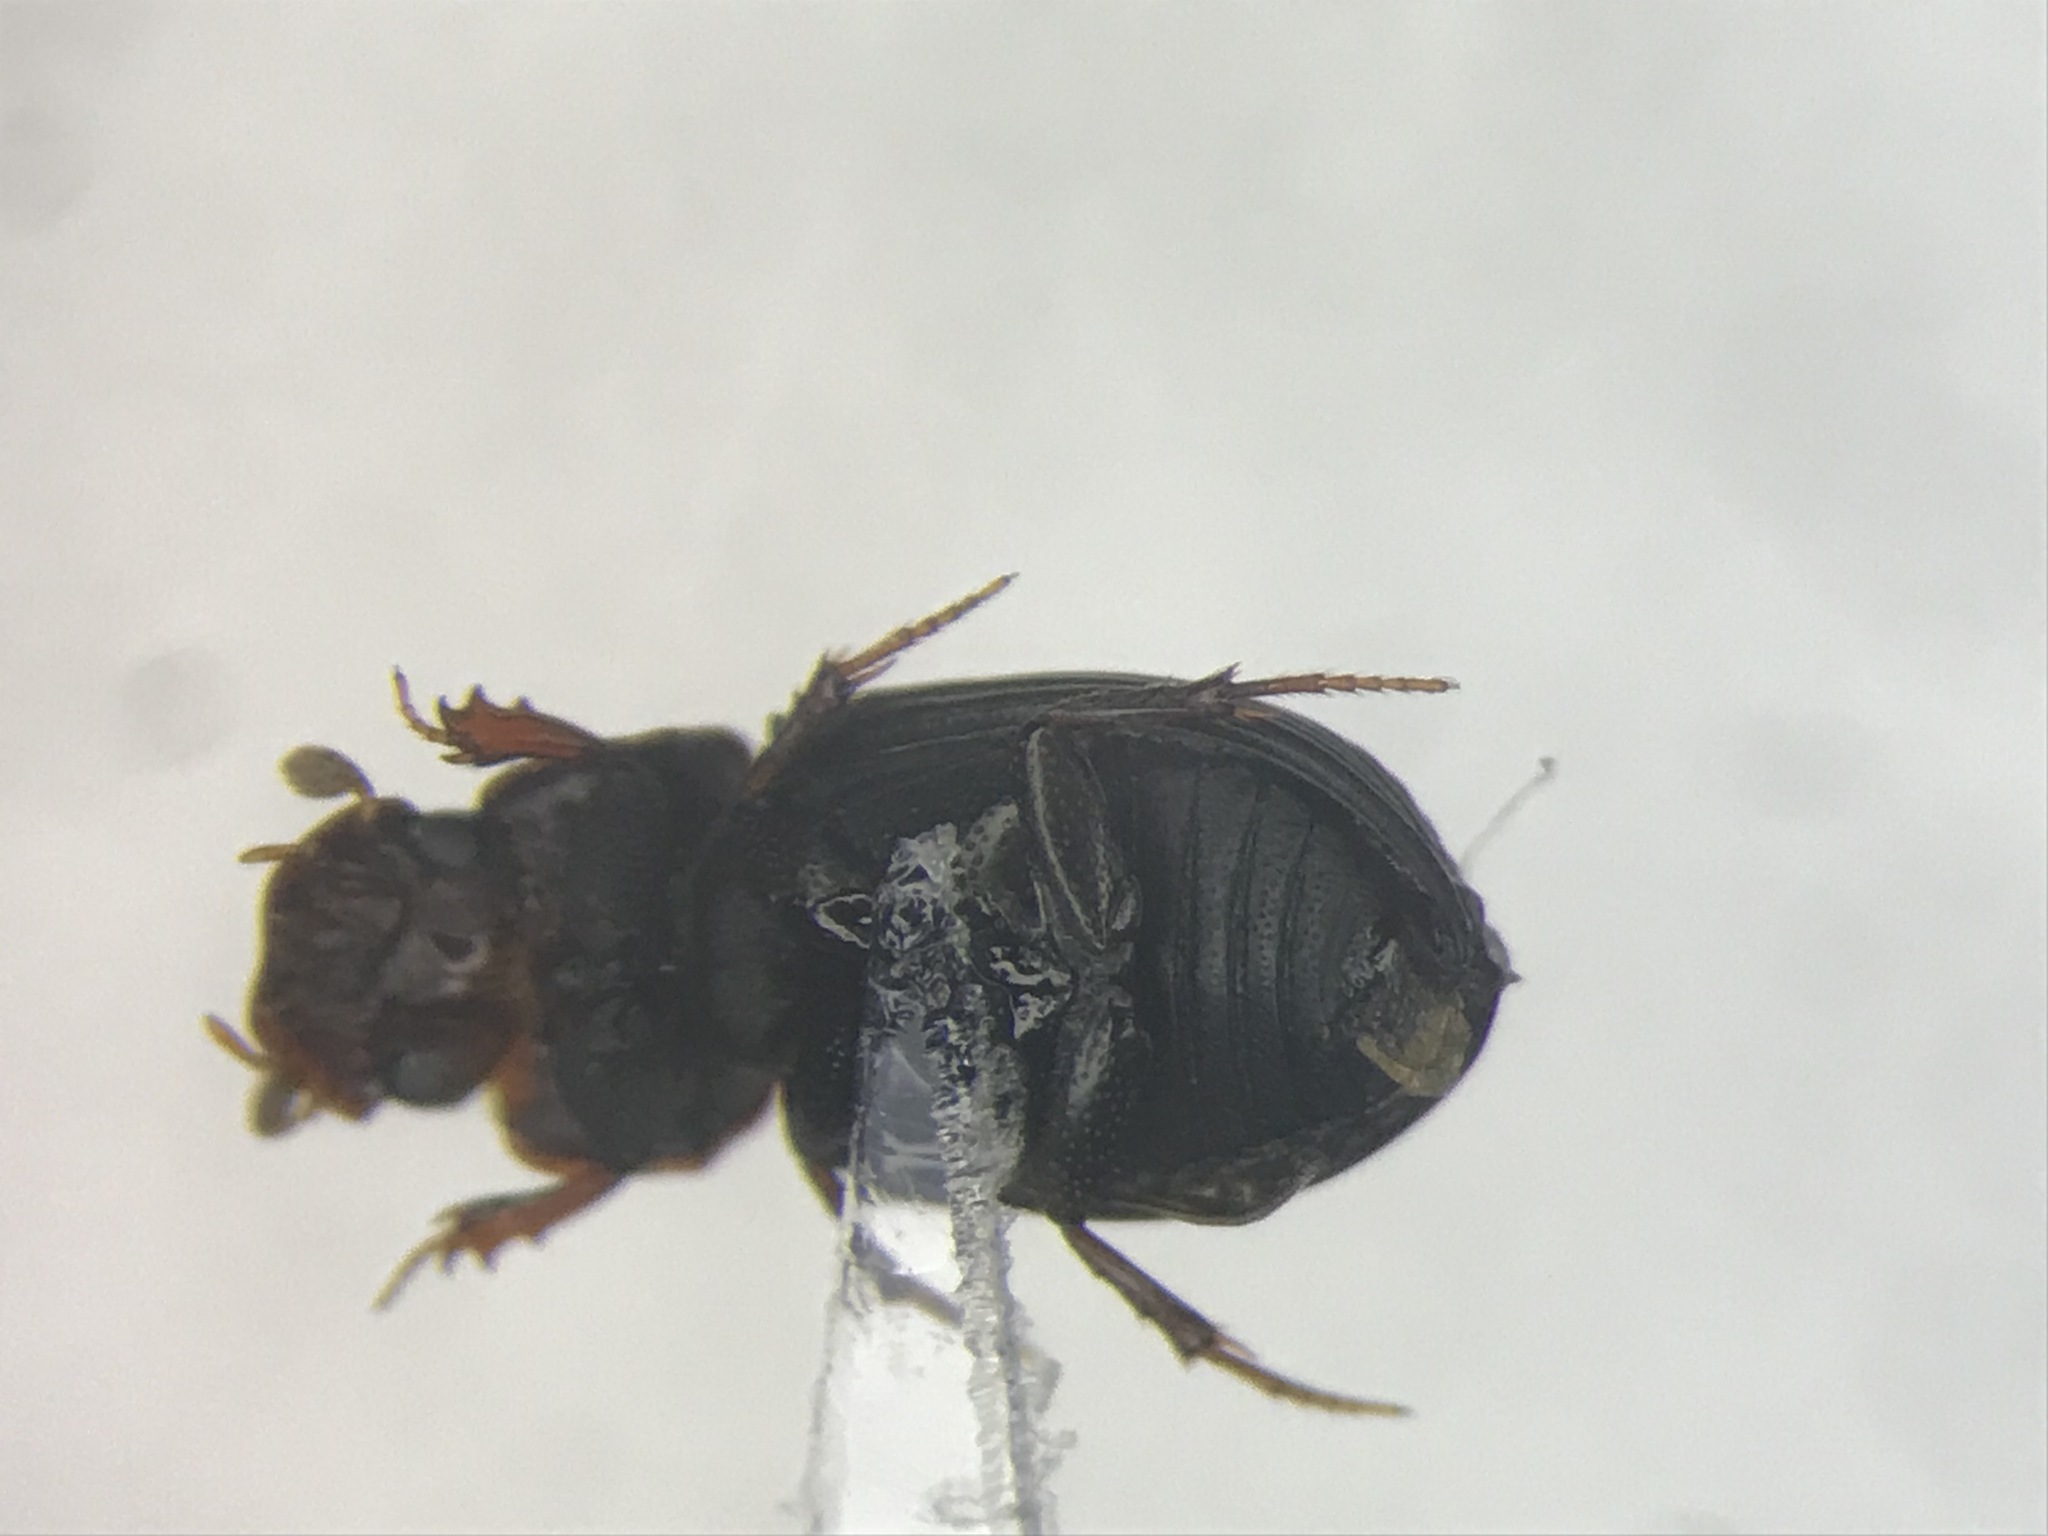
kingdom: Animalia
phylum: Arthropoda
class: Insecta
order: Coleoptera
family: Scarabaeidae
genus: Dialytellus
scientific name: Dialytellus dialytoides
